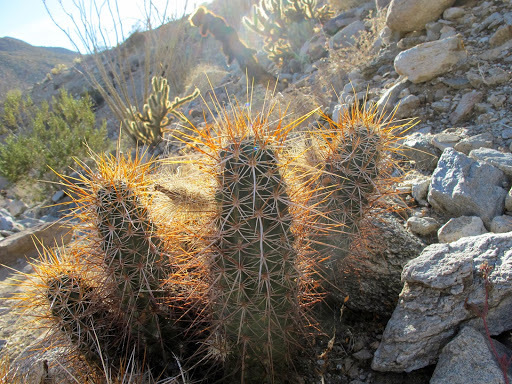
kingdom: Plantae
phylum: Tracheophyta
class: Magnoliopsida
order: Caryophyllales
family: Cactaceae
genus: Echinocereus
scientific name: Echinocereus engelmannii
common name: Engelmann's hedgehog cactus
